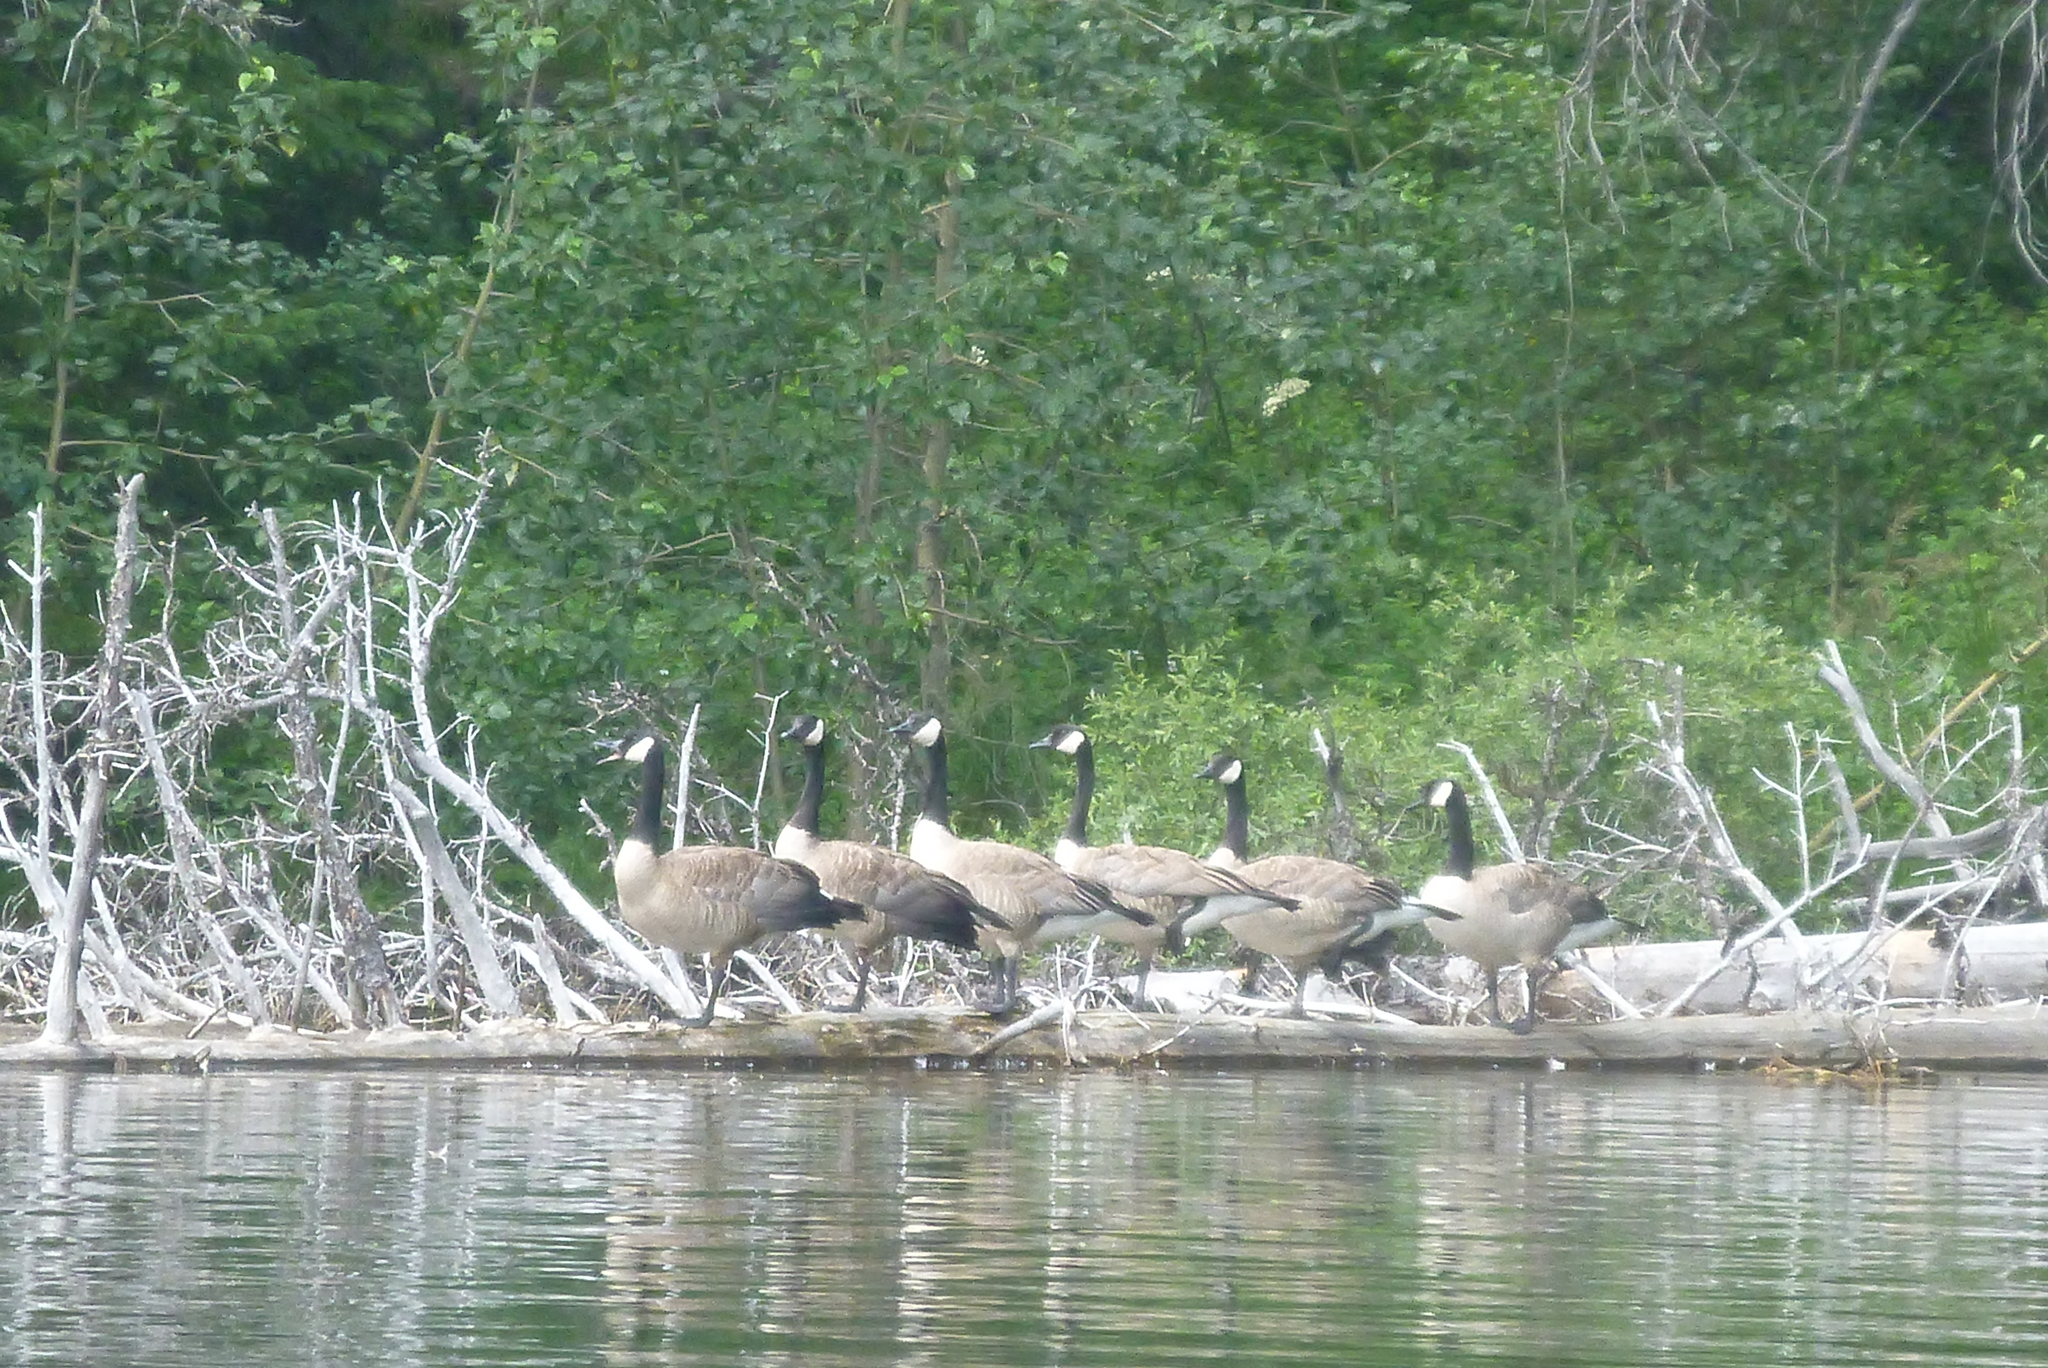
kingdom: Animalia
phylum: Chordata
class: Aves
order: Anseriformes
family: Anatidae
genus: Branta
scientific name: Branta canadensis
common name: Canada goose
